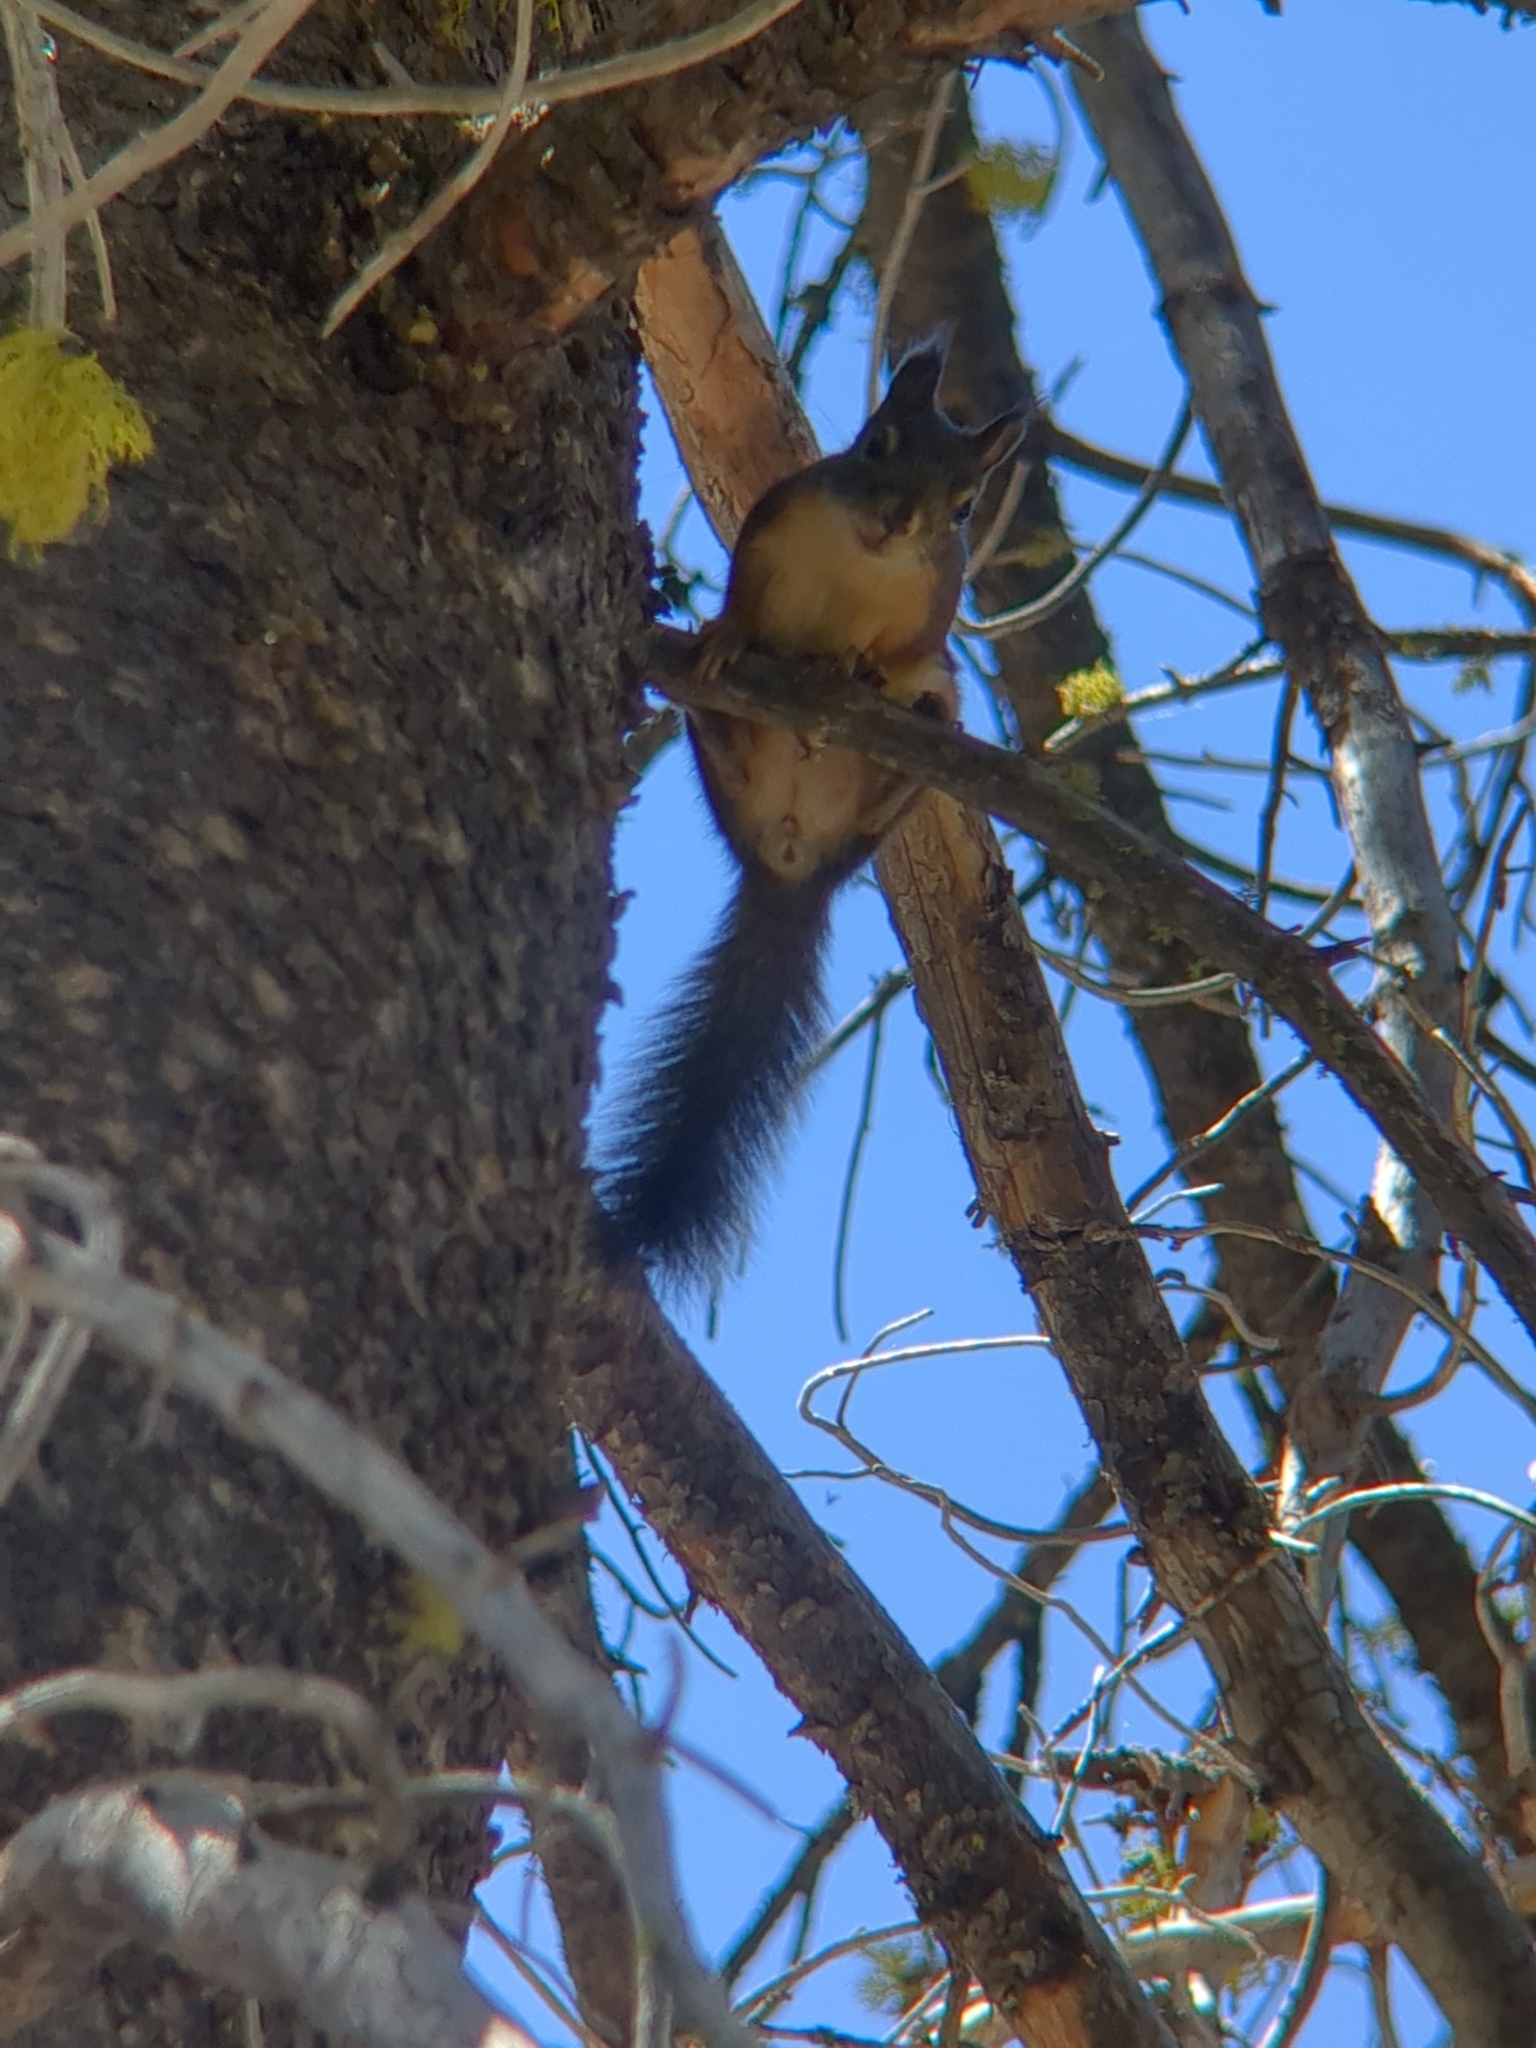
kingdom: Animalia
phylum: Chordata
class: Mammalia
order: Rodentia
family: Sciuridae
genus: Tamiasciurus
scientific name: Tamiasciurus douglasii
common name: Douglas's squirrel
